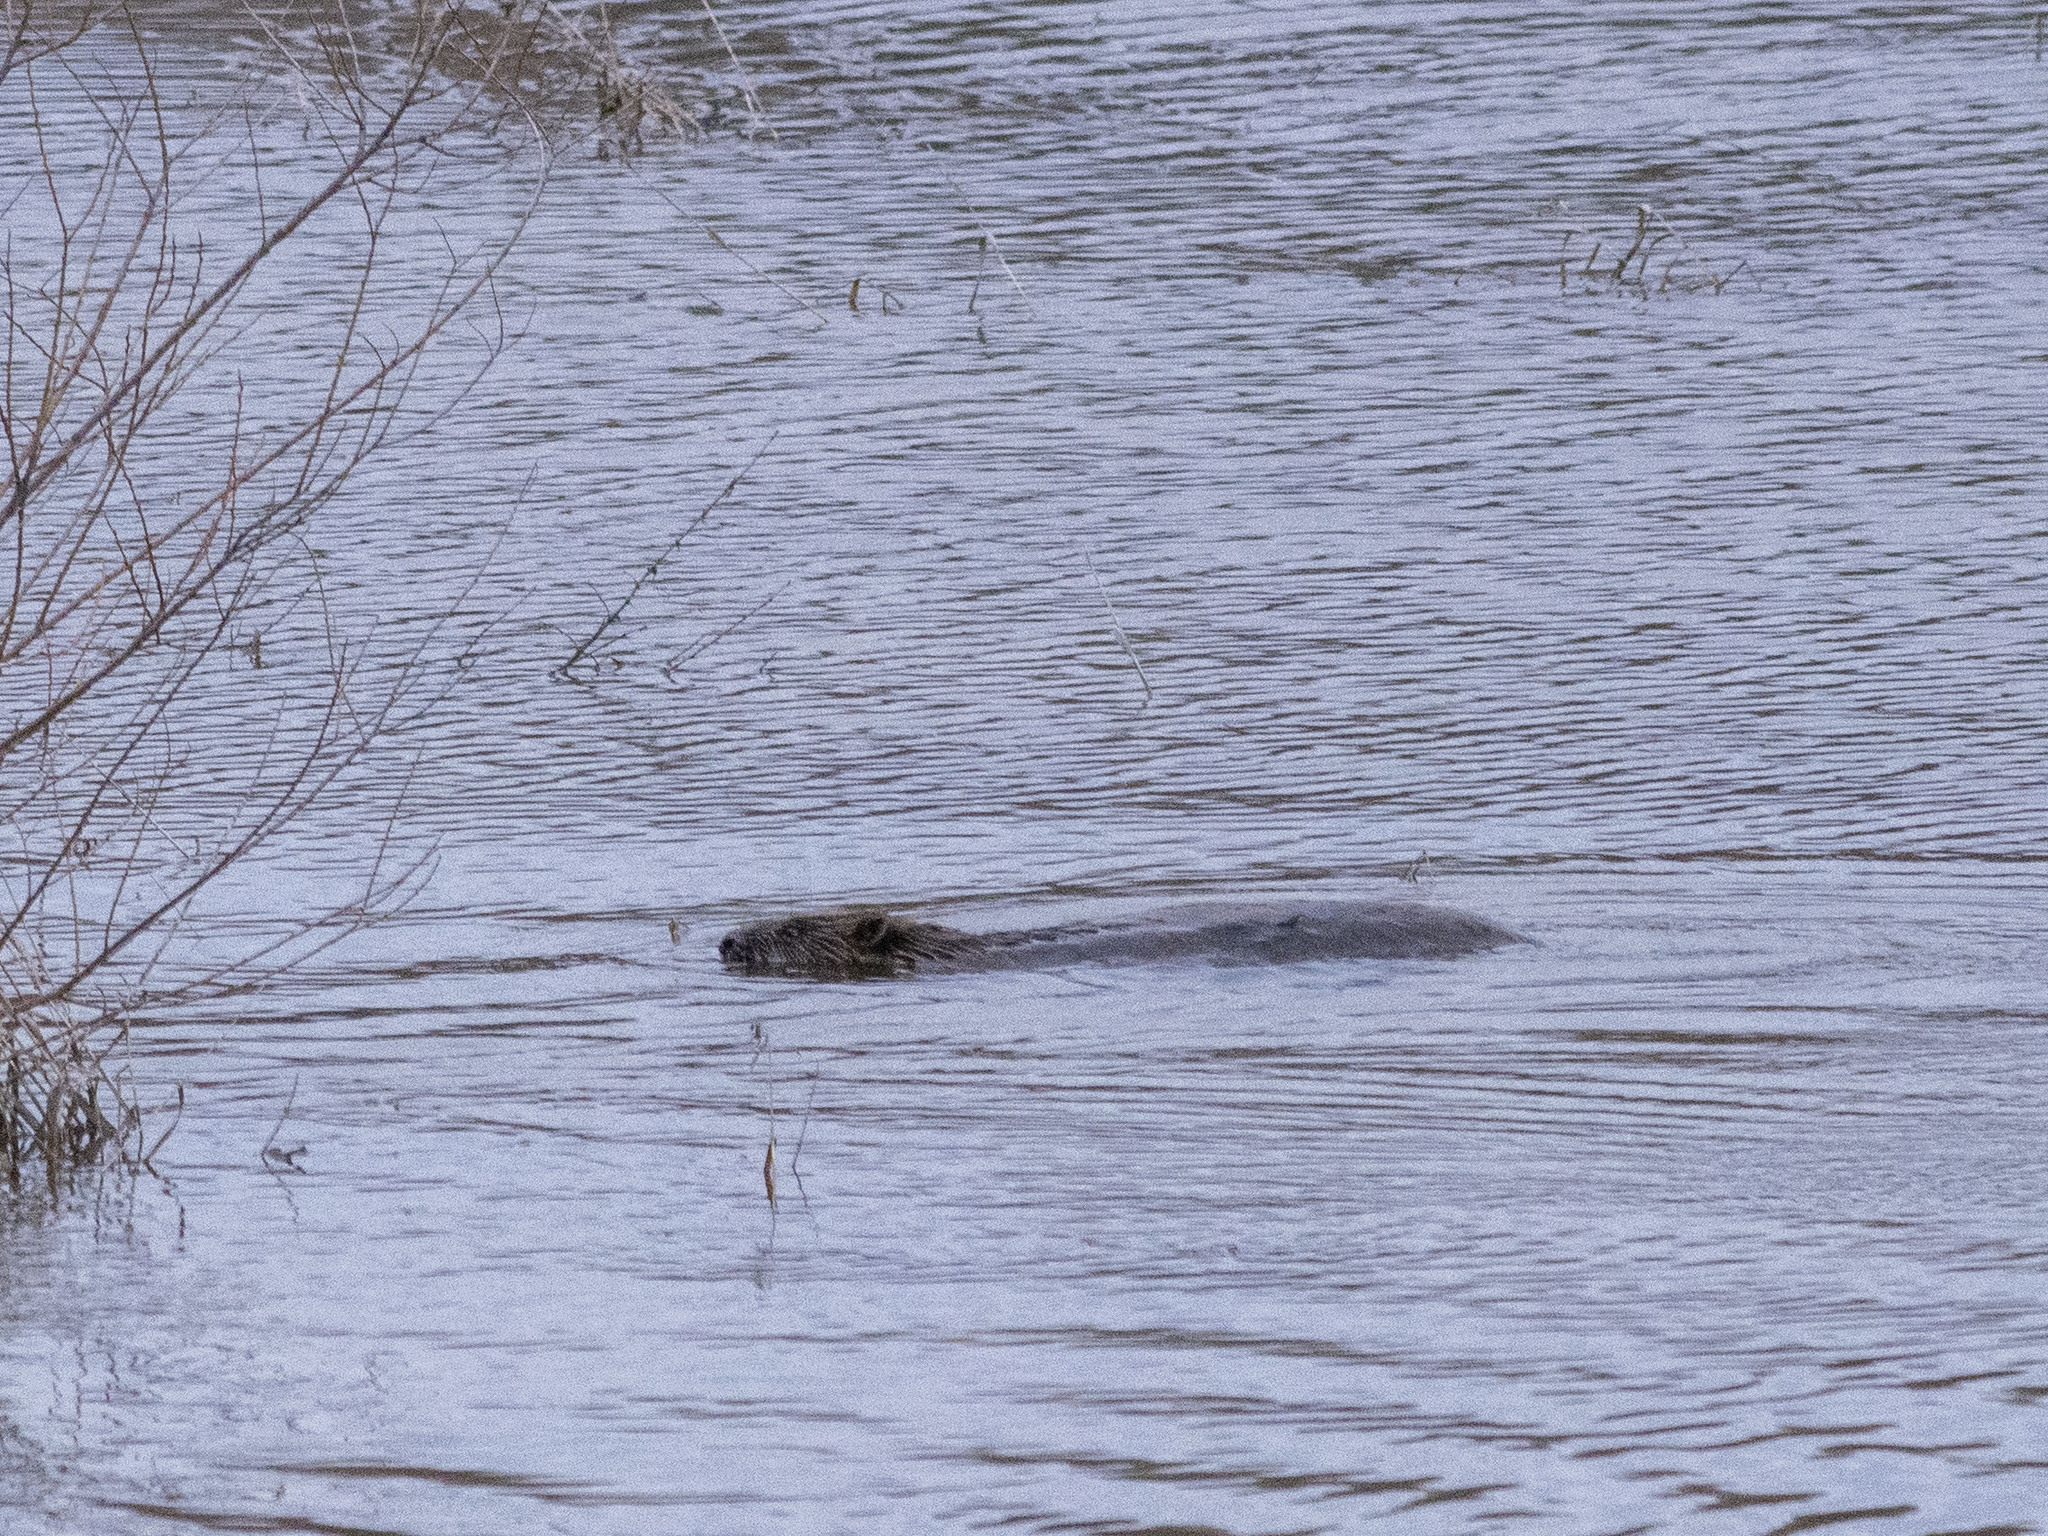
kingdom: Animalia
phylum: Chordata
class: Mammalia
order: Rodentia
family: Castoridae
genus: Castor
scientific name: Castor fiber
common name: Eurasian beaver
